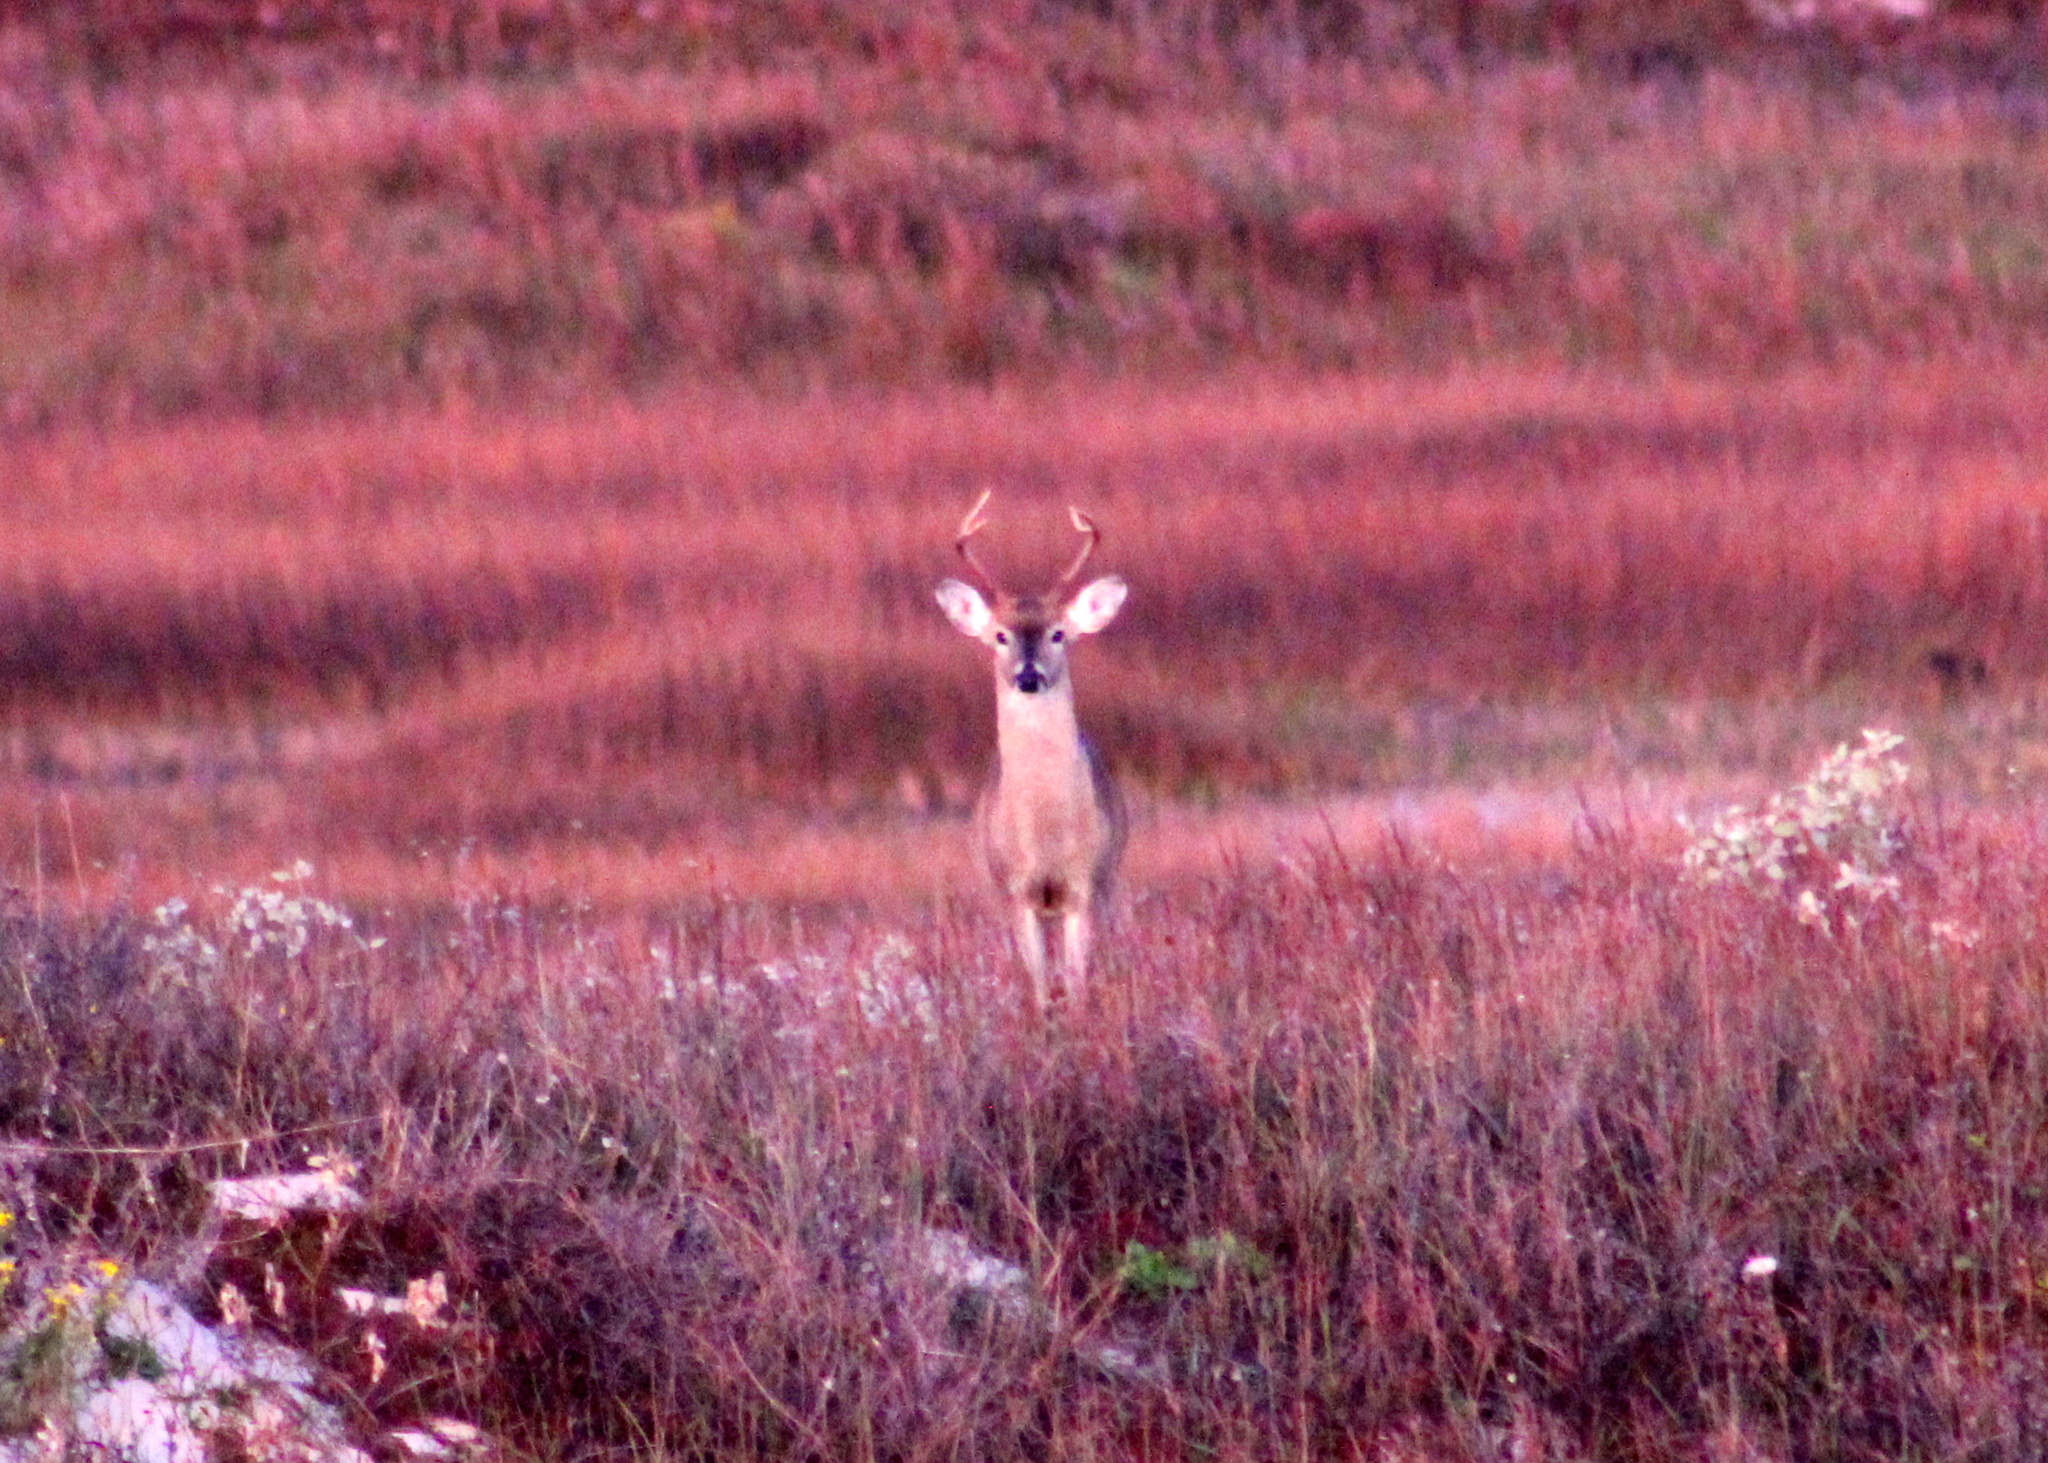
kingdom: Animalia
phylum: Chordata
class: Mammalia
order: Artiodactyla
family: Cervidae
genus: Odocoileus
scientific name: Odocoileus virginianus
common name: White-tailed deer
